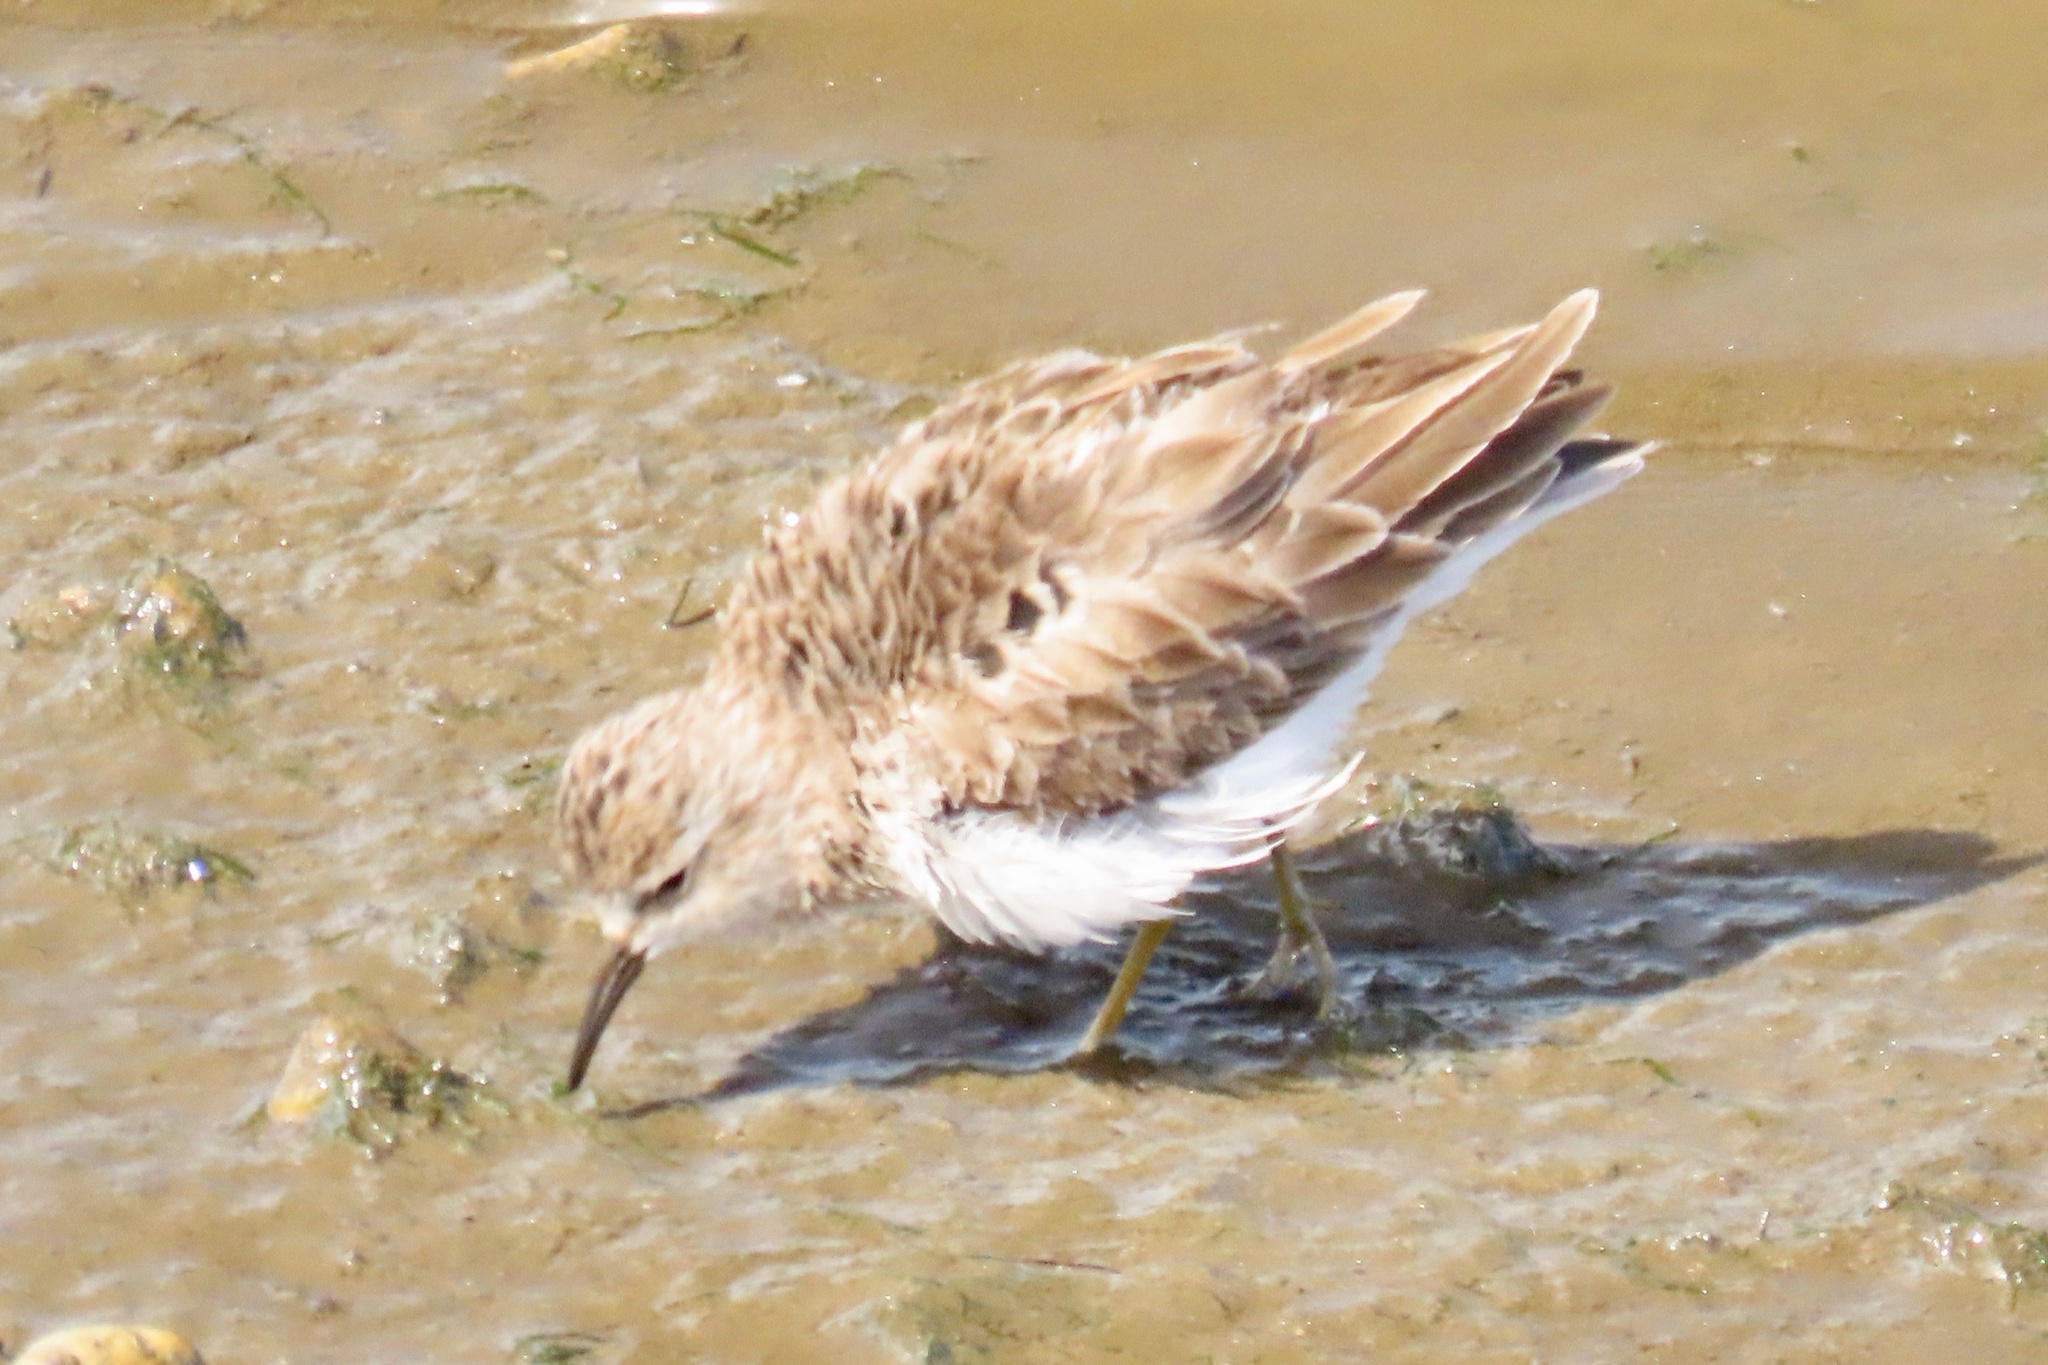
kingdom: Animalia
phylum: Chordata
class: Aves
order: Charadriiformes
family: Scolopacidae
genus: Calidris
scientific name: Calidris minutilla
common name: Least sandpiper
